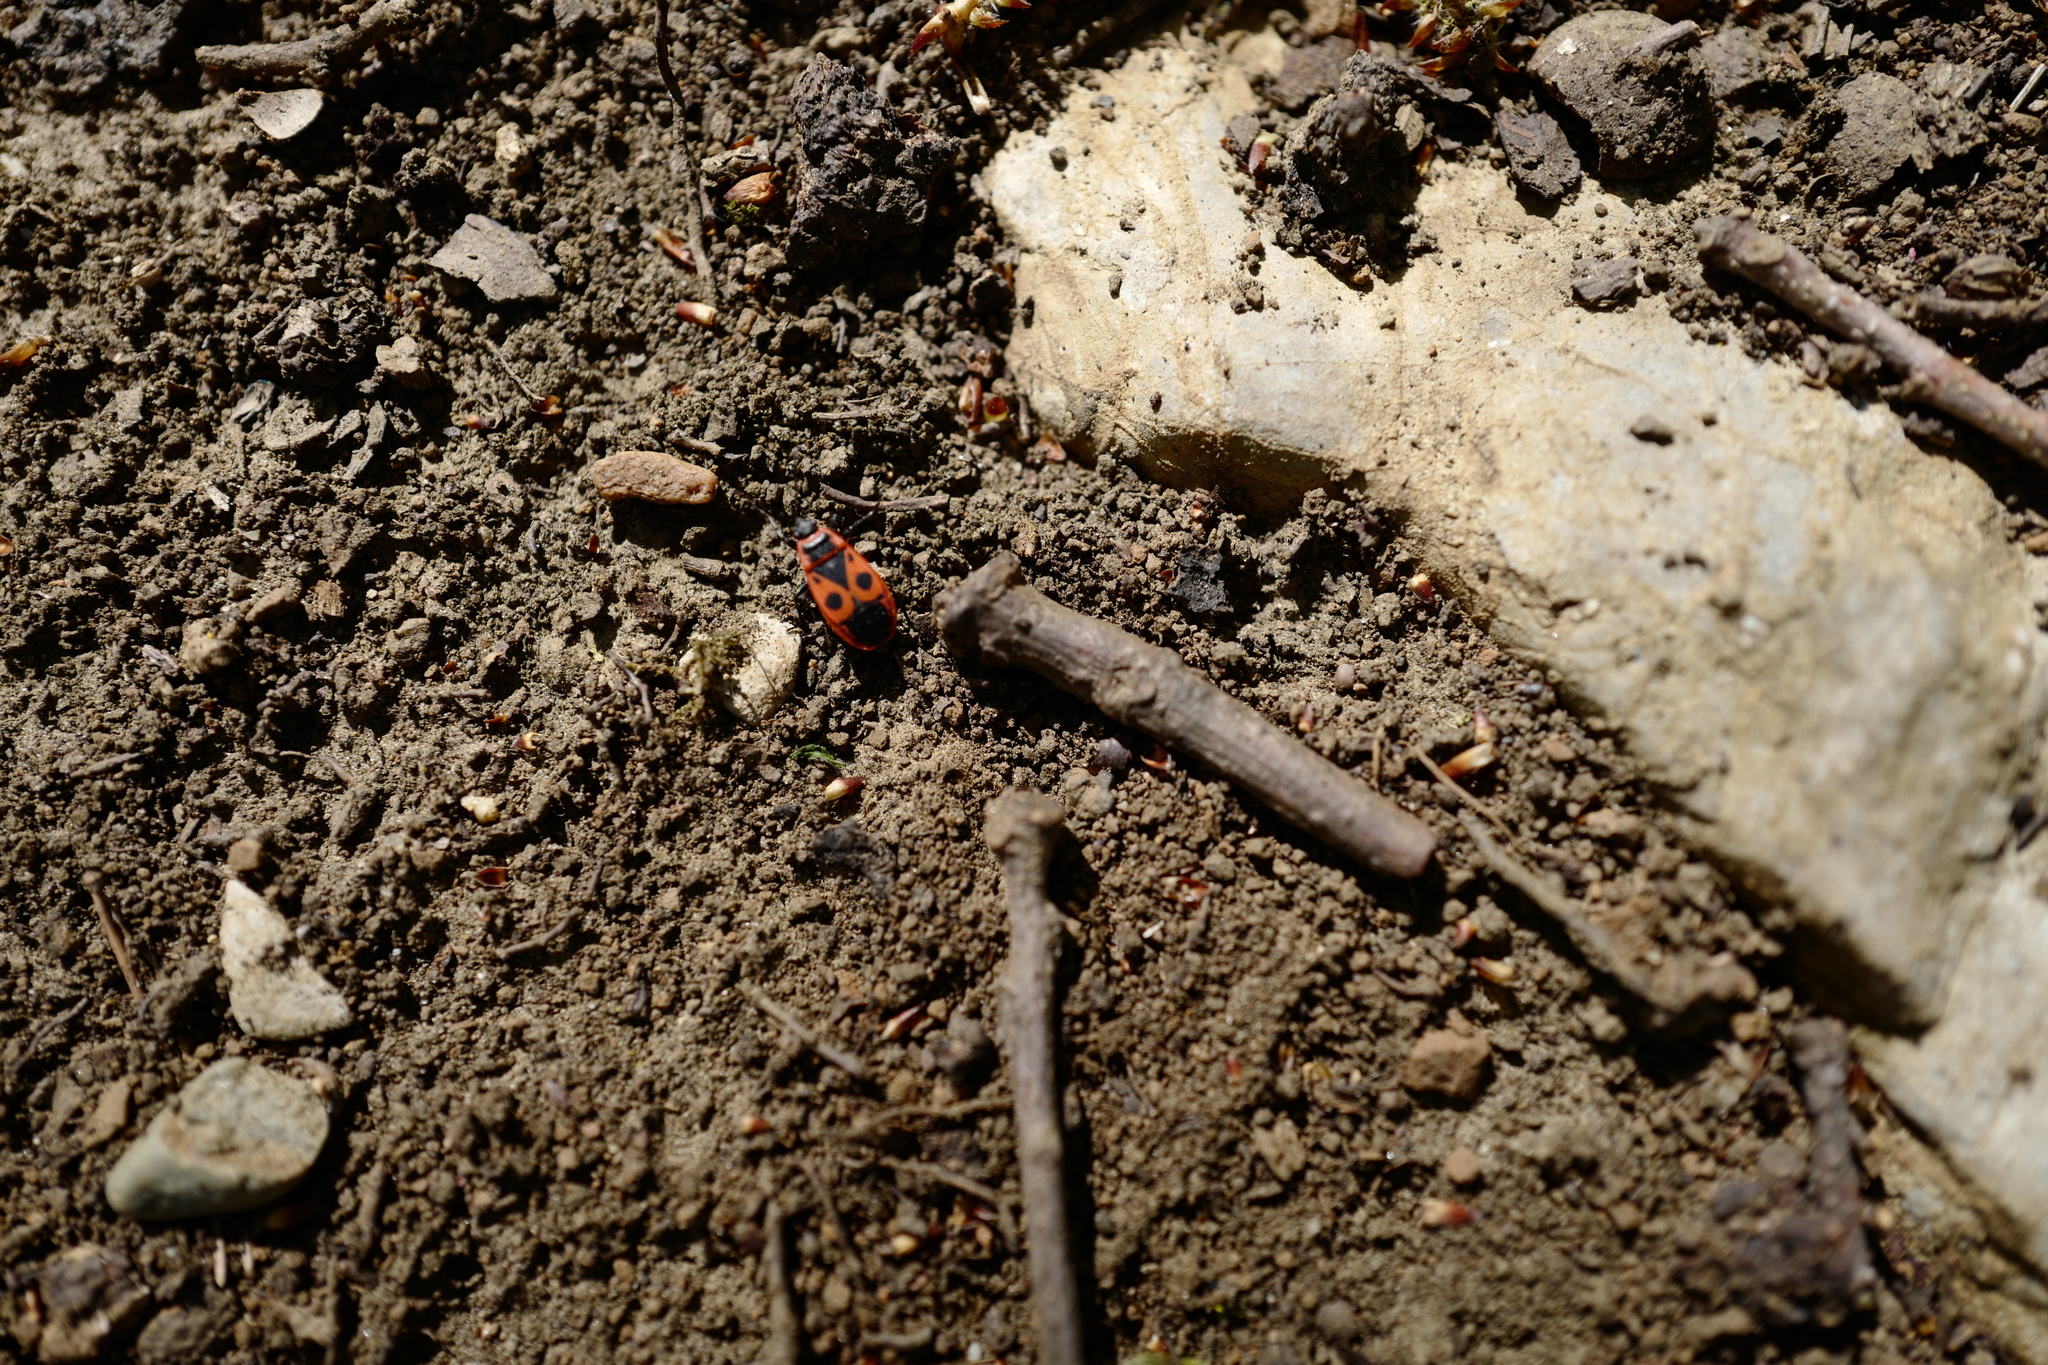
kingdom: Animalia
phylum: Arthropoda
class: Insecta
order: Hemiptera
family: Pyrrhocoridae
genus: Pyrrhocoris
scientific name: Pyrrhocoris apterus
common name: Firebug
